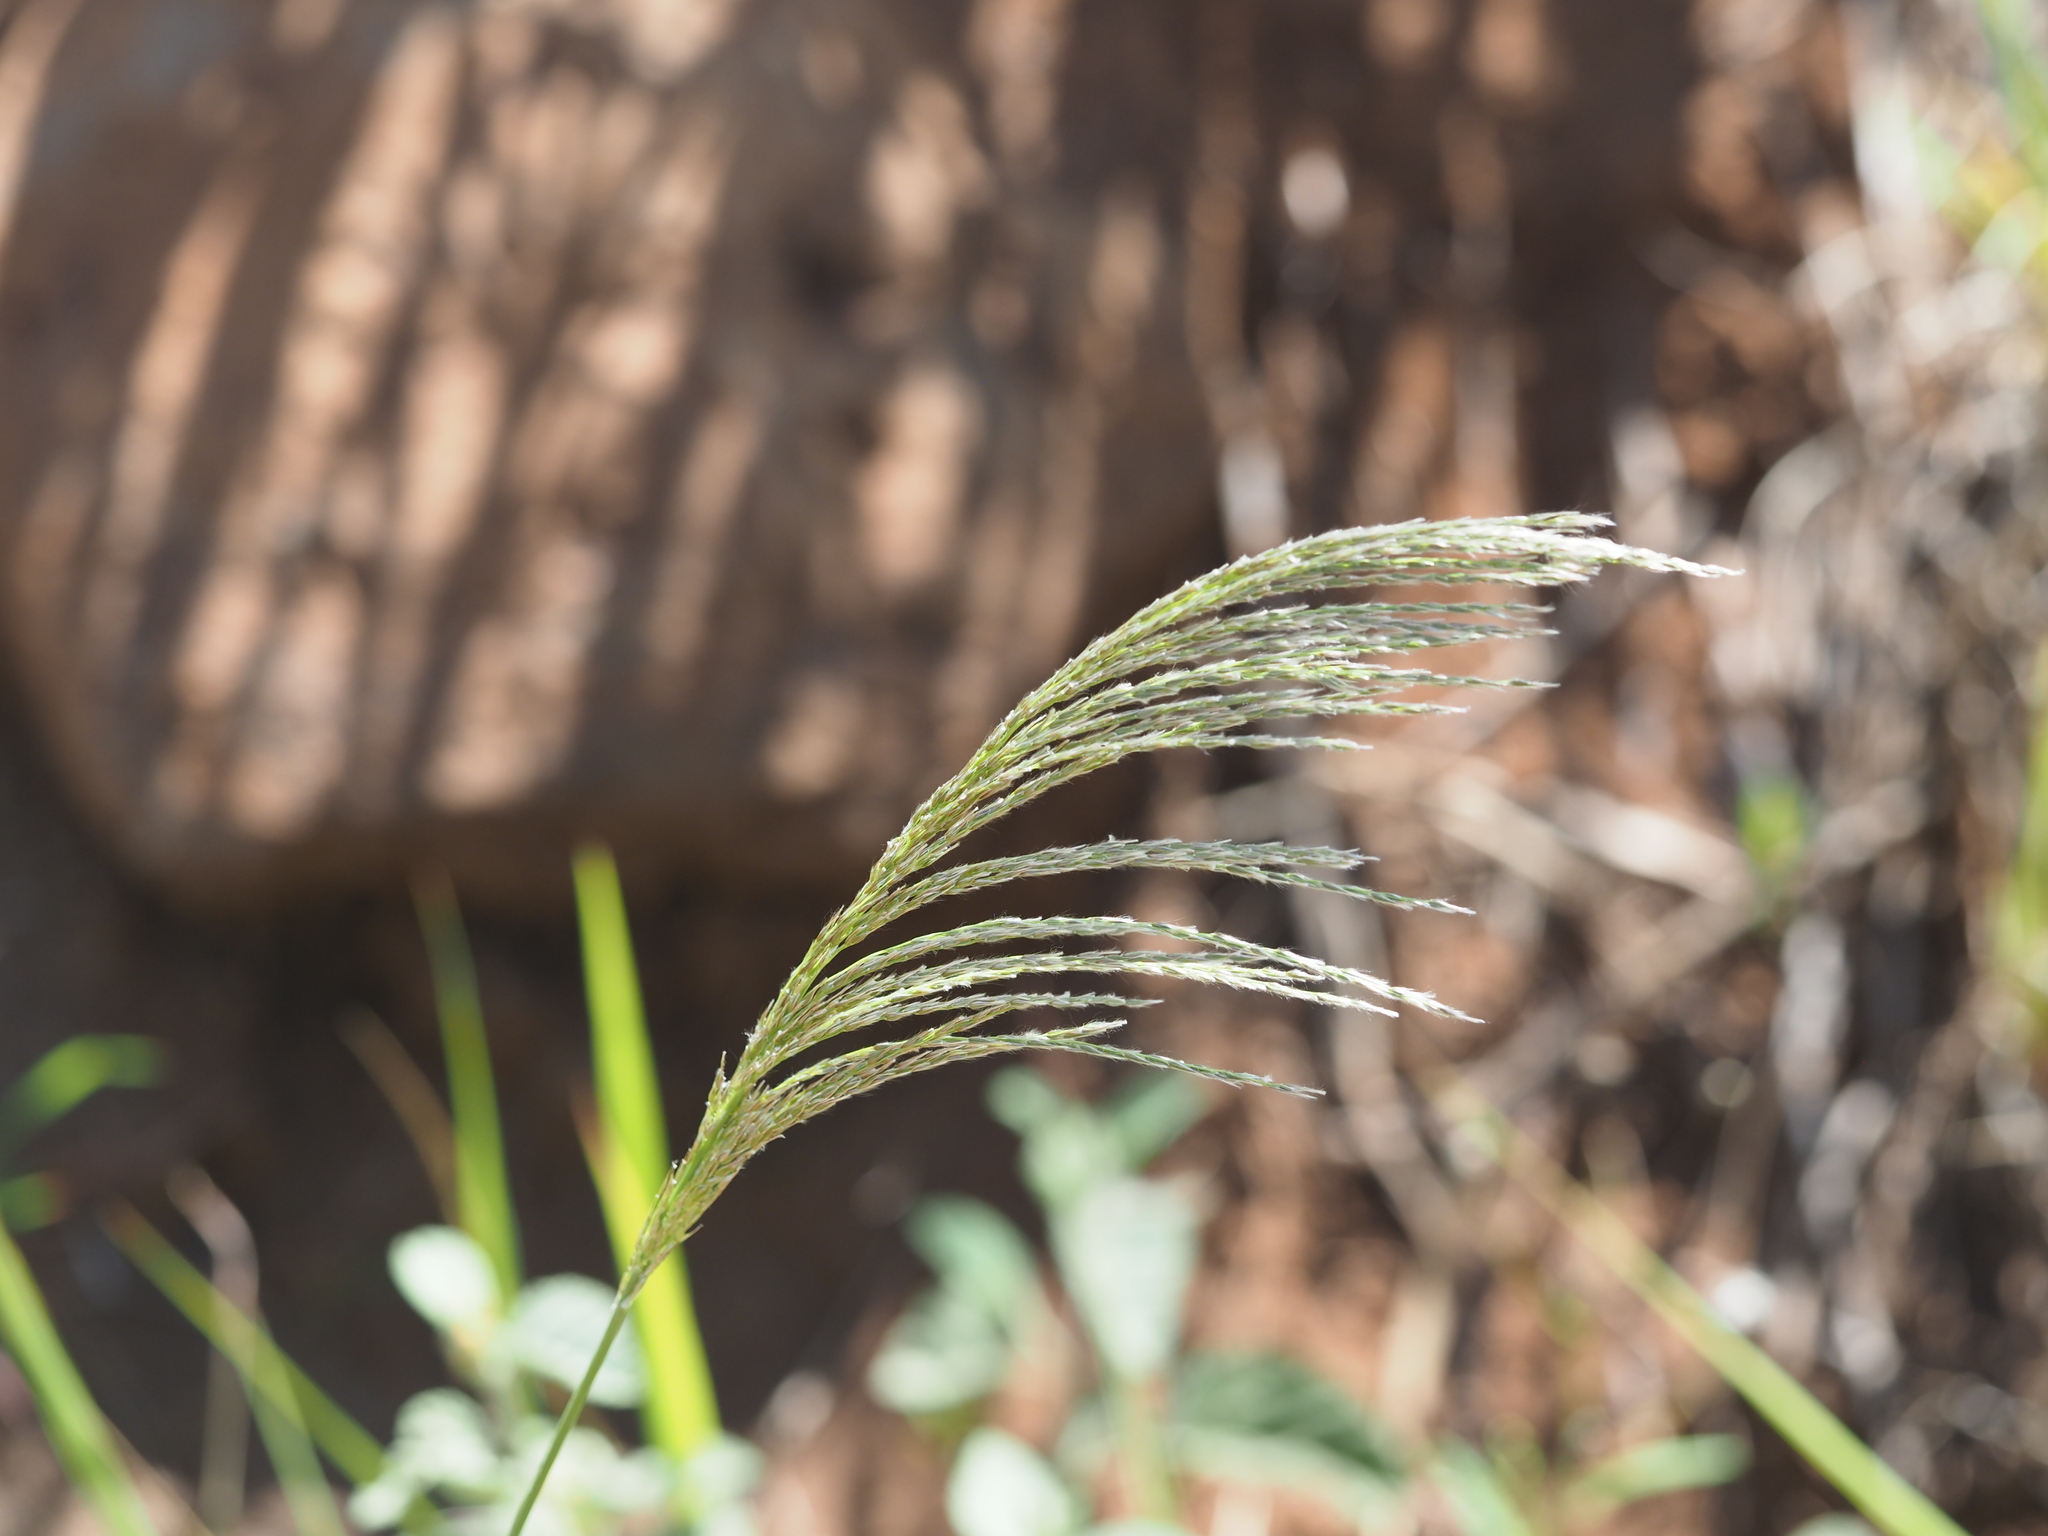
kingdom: Plantae
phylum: Tracheophyta
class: Liliopsida
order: Poales
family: Poaceae
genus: Digitaria
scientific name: Digitaria insularis
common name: Sourgrass
